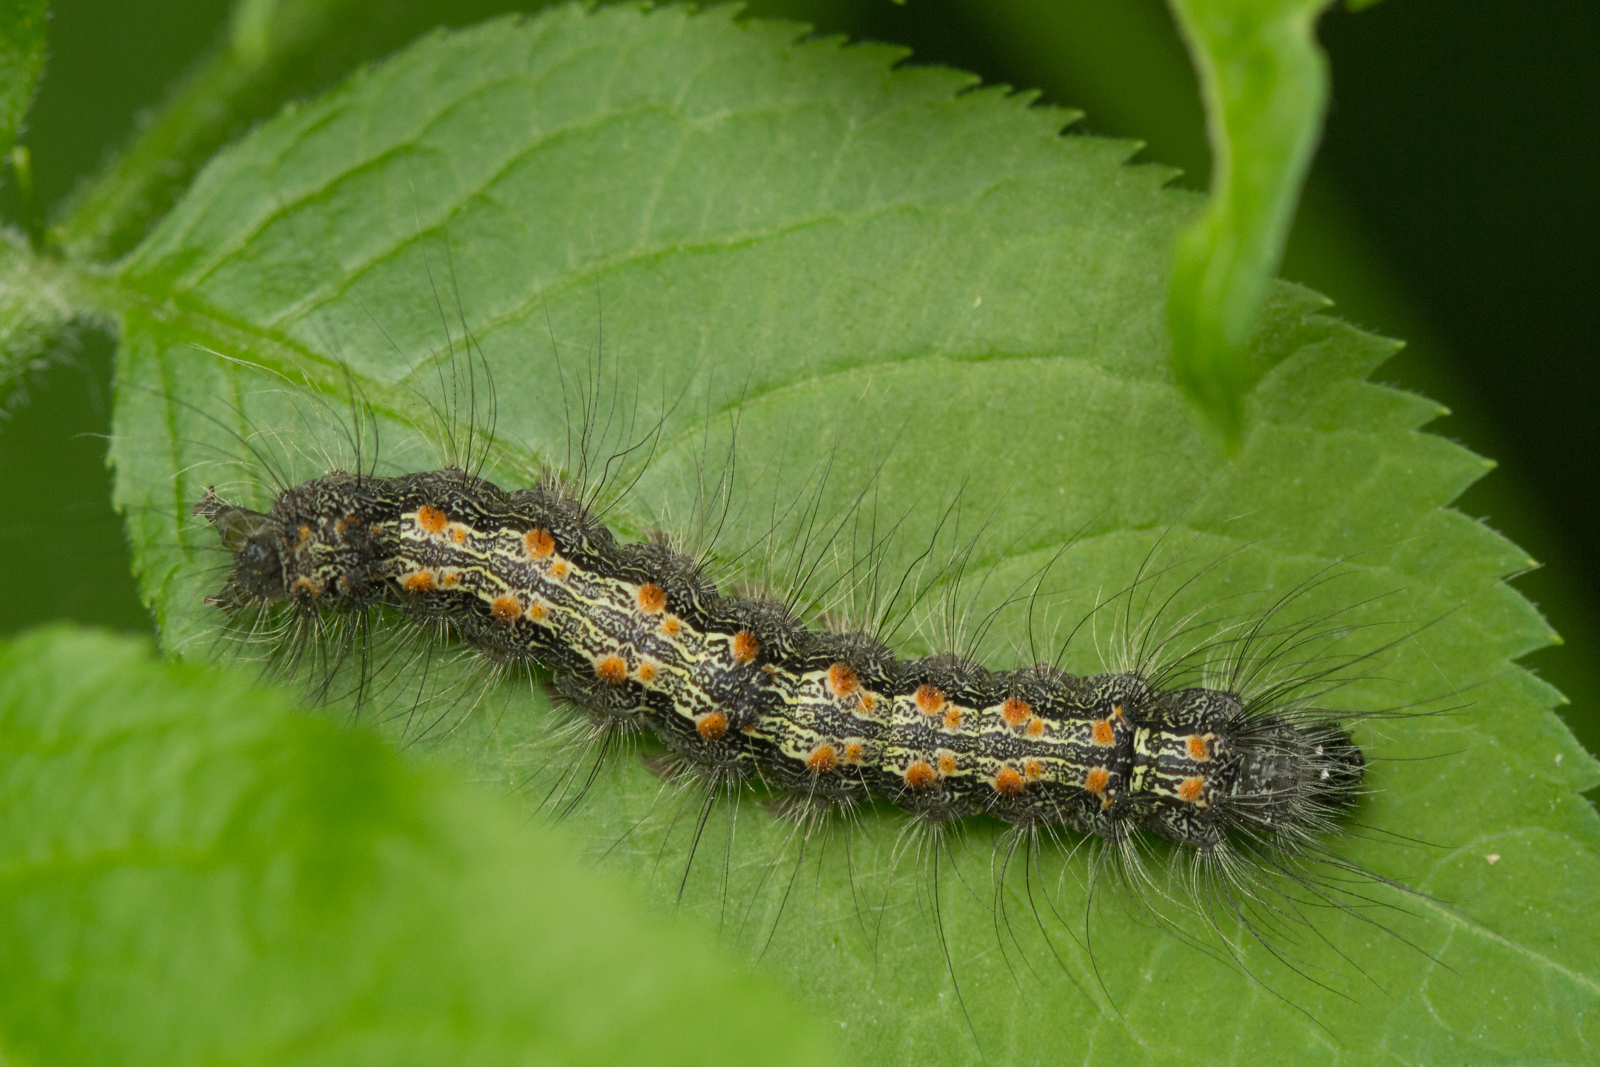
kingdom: Animalia
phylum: Arthropoda
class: Insecta
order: Lepidoptera
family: Erebidae
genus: Lithosia
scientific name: Lithosia quadra
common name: Four-spotted footman
